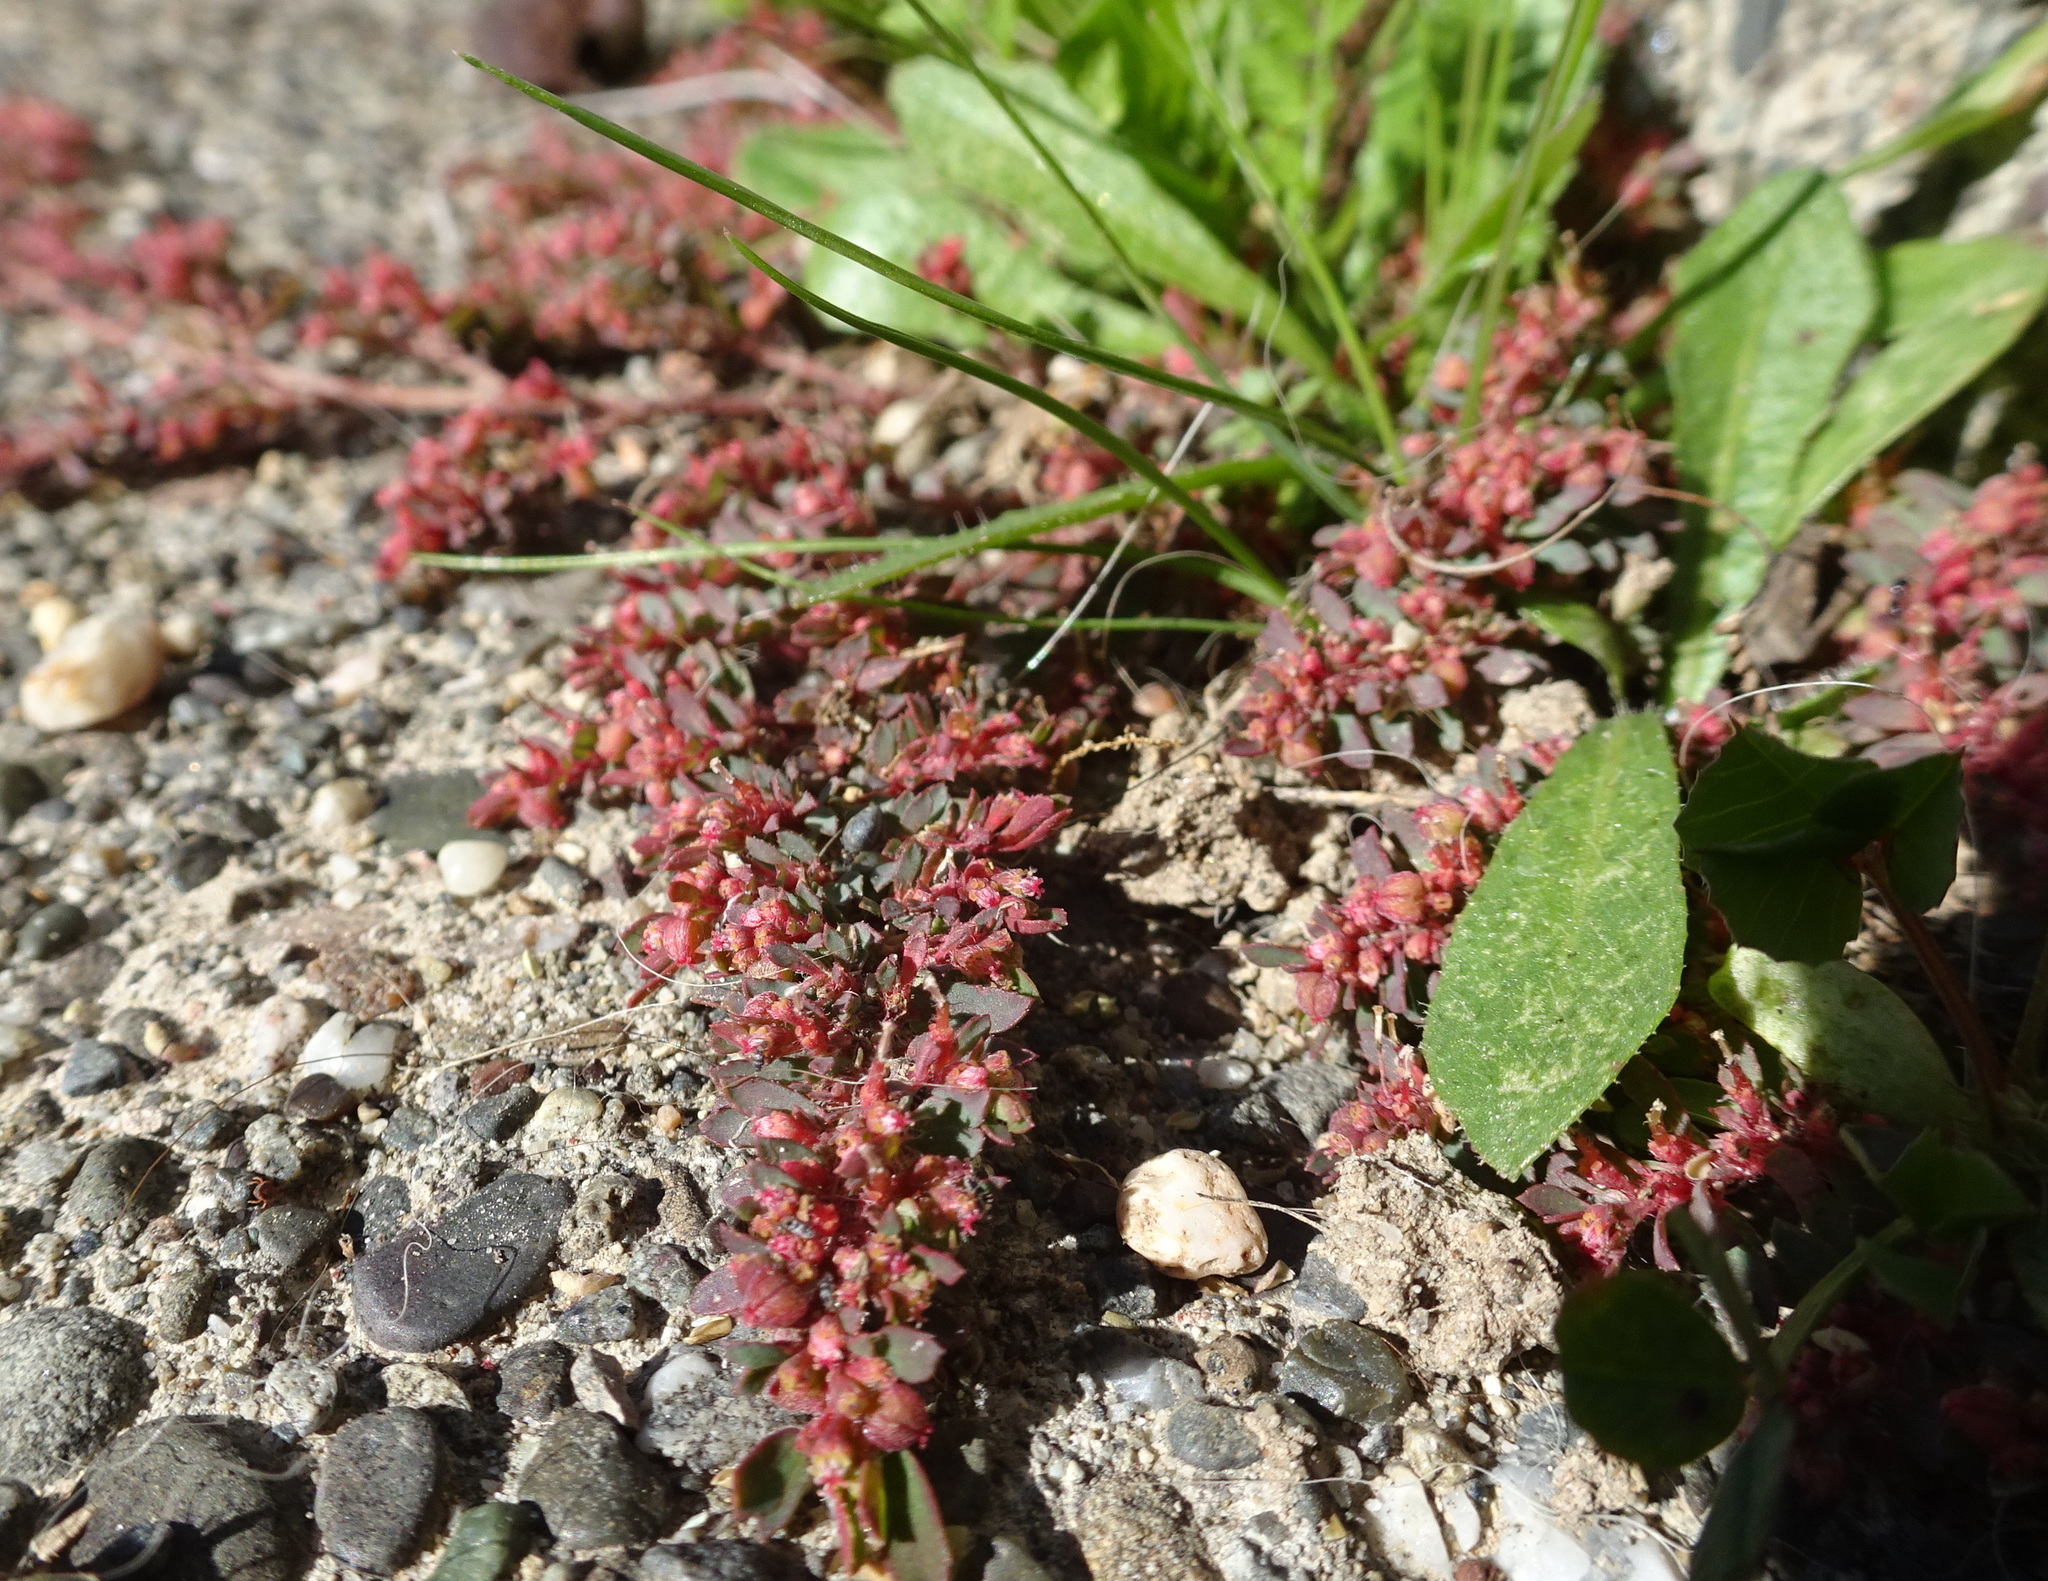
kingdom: Plantae
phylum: Tracheophyta
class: Magnoliopsida
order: Malpighiales
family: Euphorbiaceae
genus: Euphorbia
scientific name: Euphorbia maculata
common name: Spotted spurge
